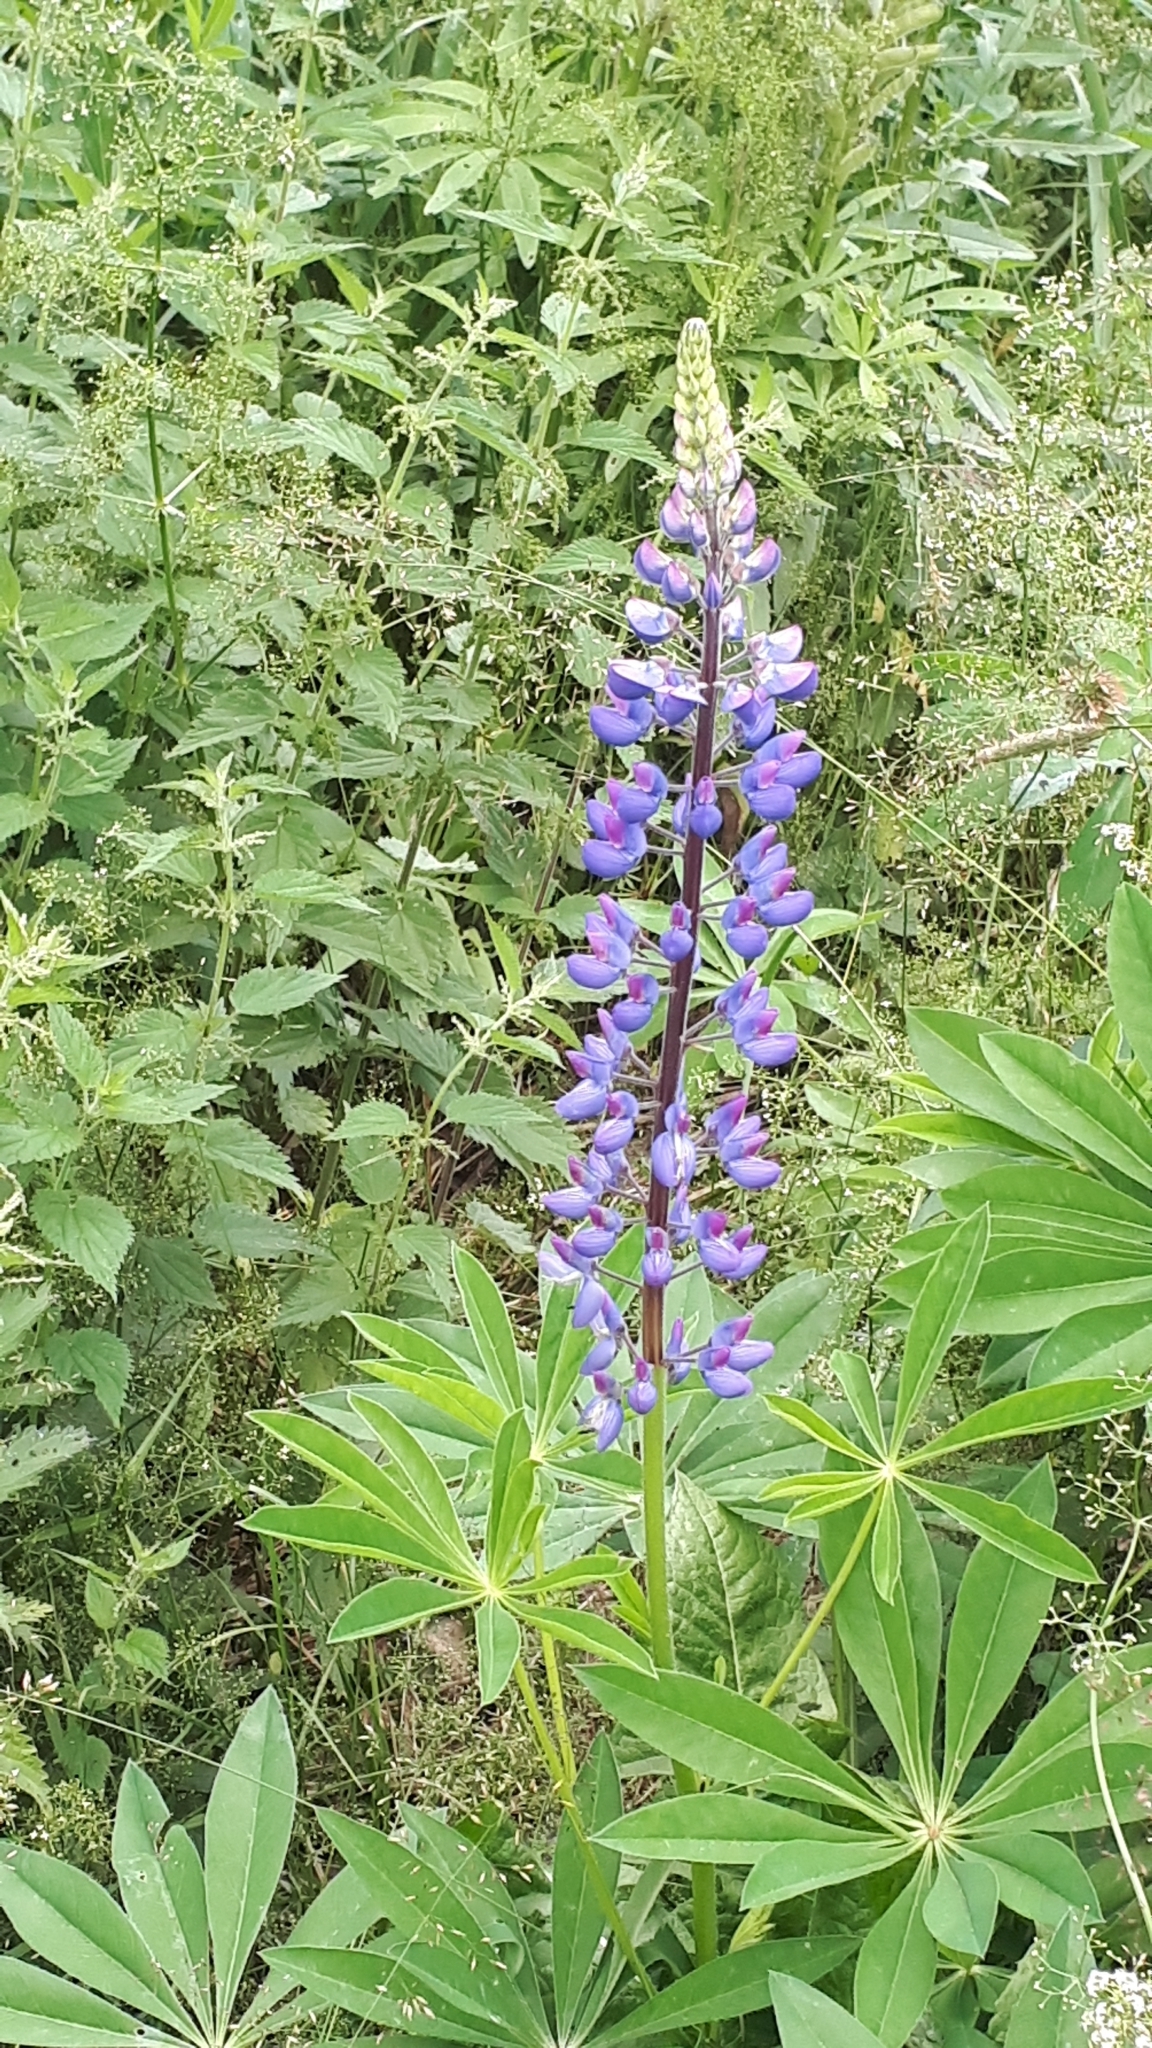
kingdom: Plantae
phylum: Tracheophyta
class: Magnoliopsida
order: Fabales
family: Fabaceae
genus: Lupinus
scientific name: Lupinus polyphyllus
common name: Garden lupin
